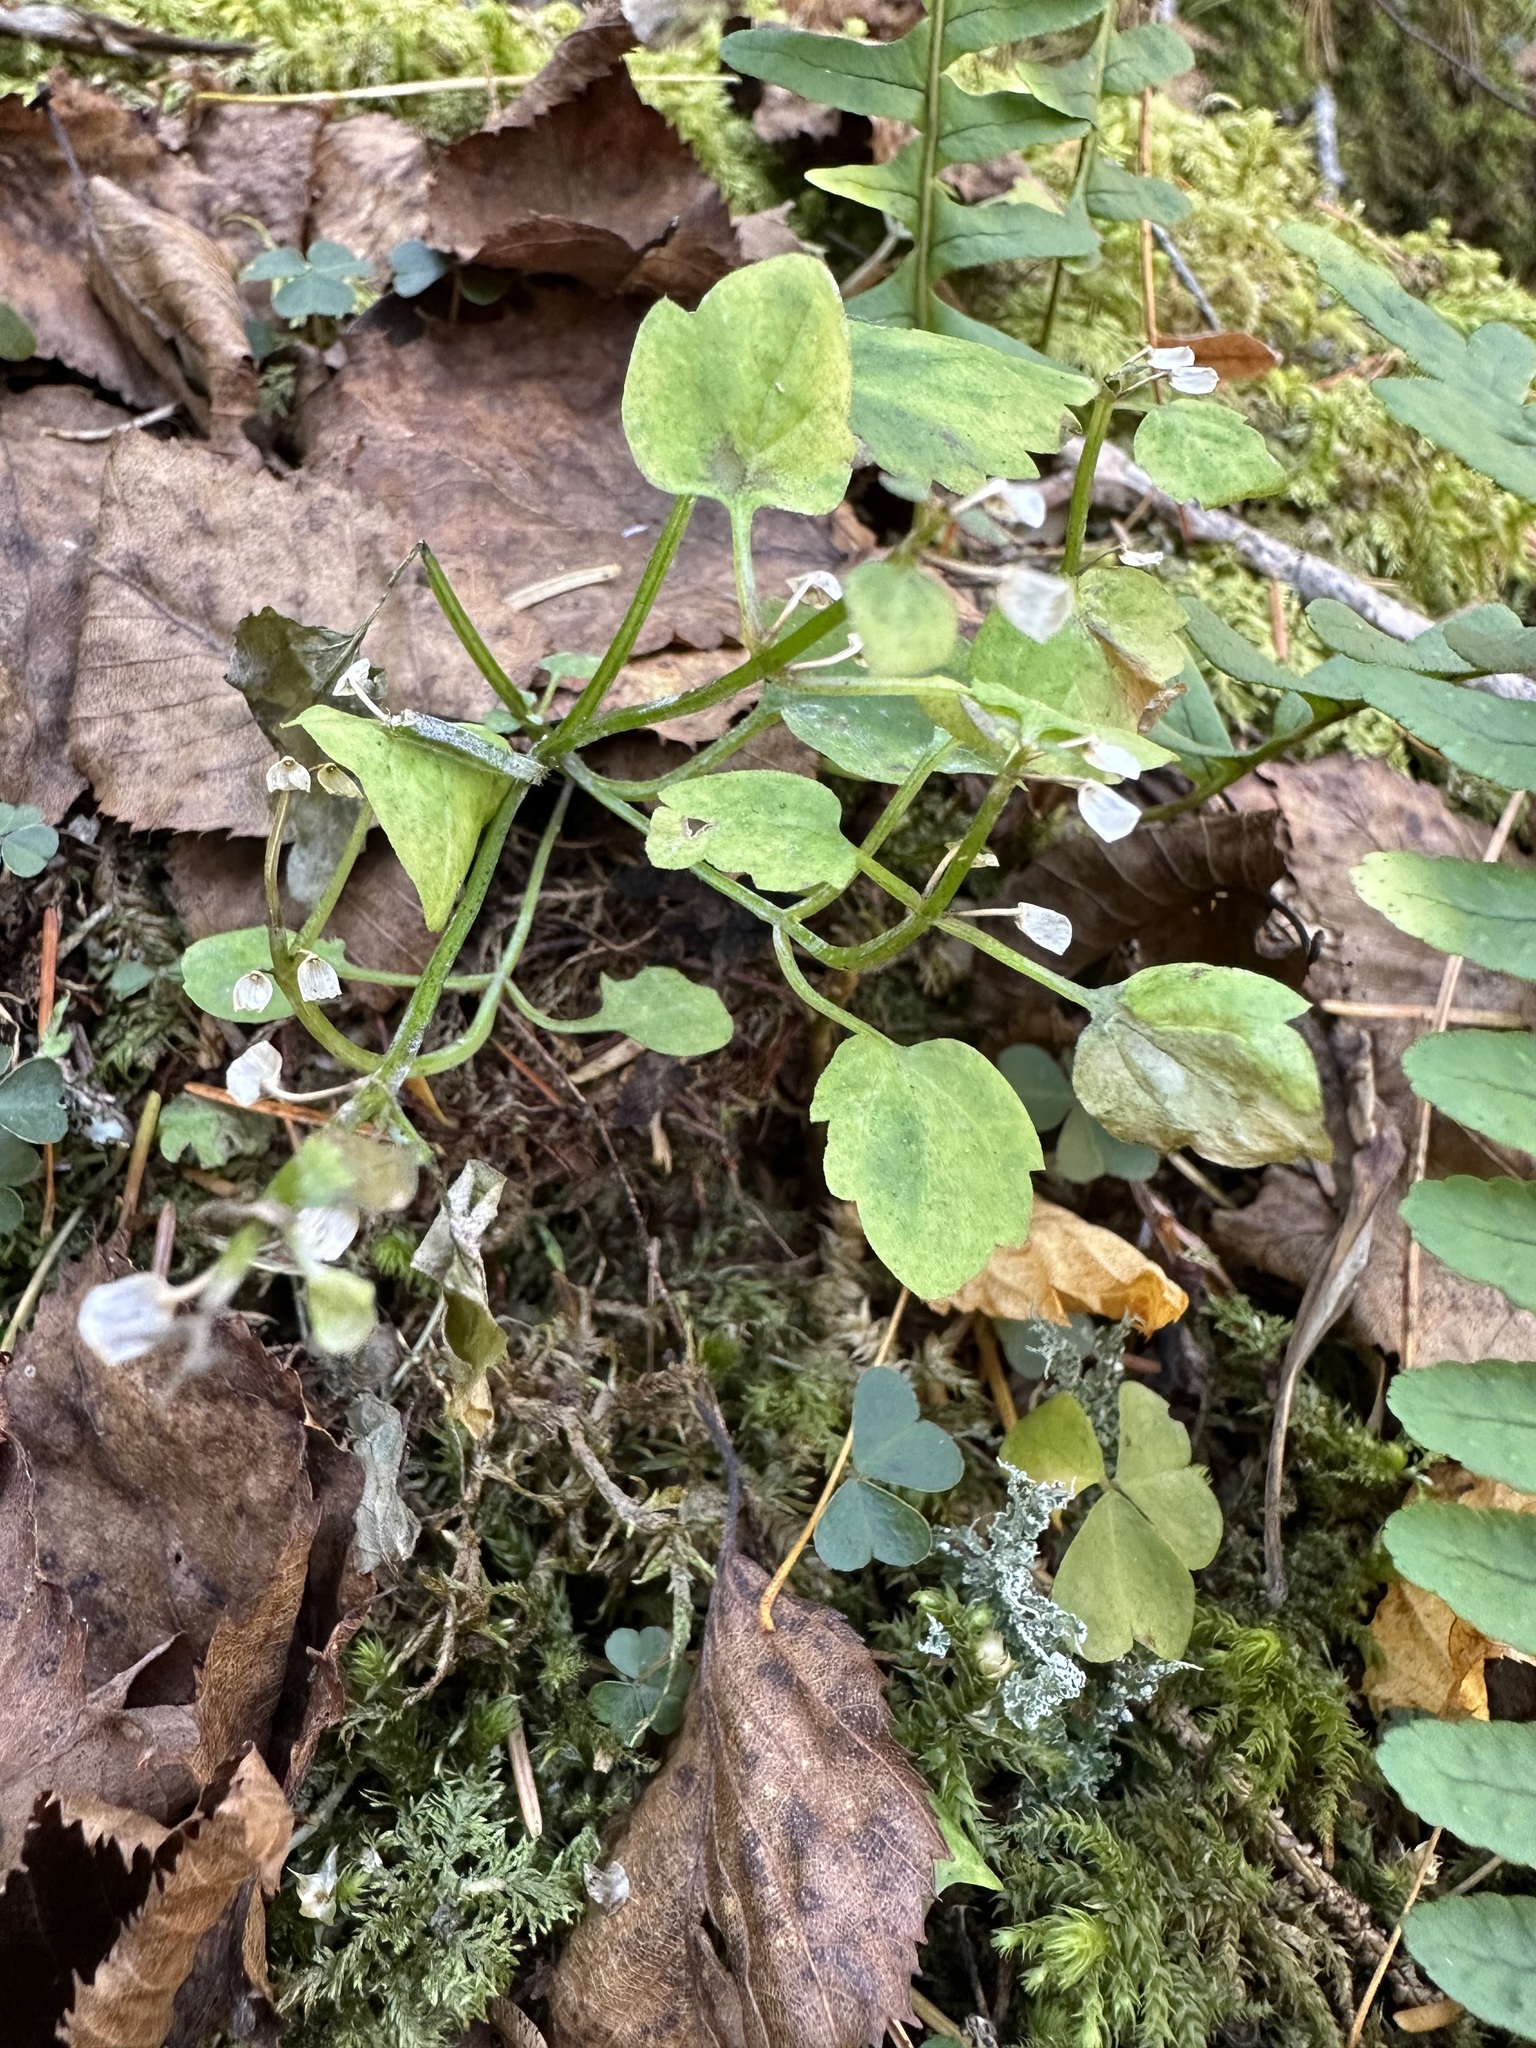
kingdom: Plantae
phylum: Tracheophyta
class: Magnoliopsida
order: Lamiales
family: Lamiaceae
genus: Scutellaria
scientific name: Scutellaria pekinensis
